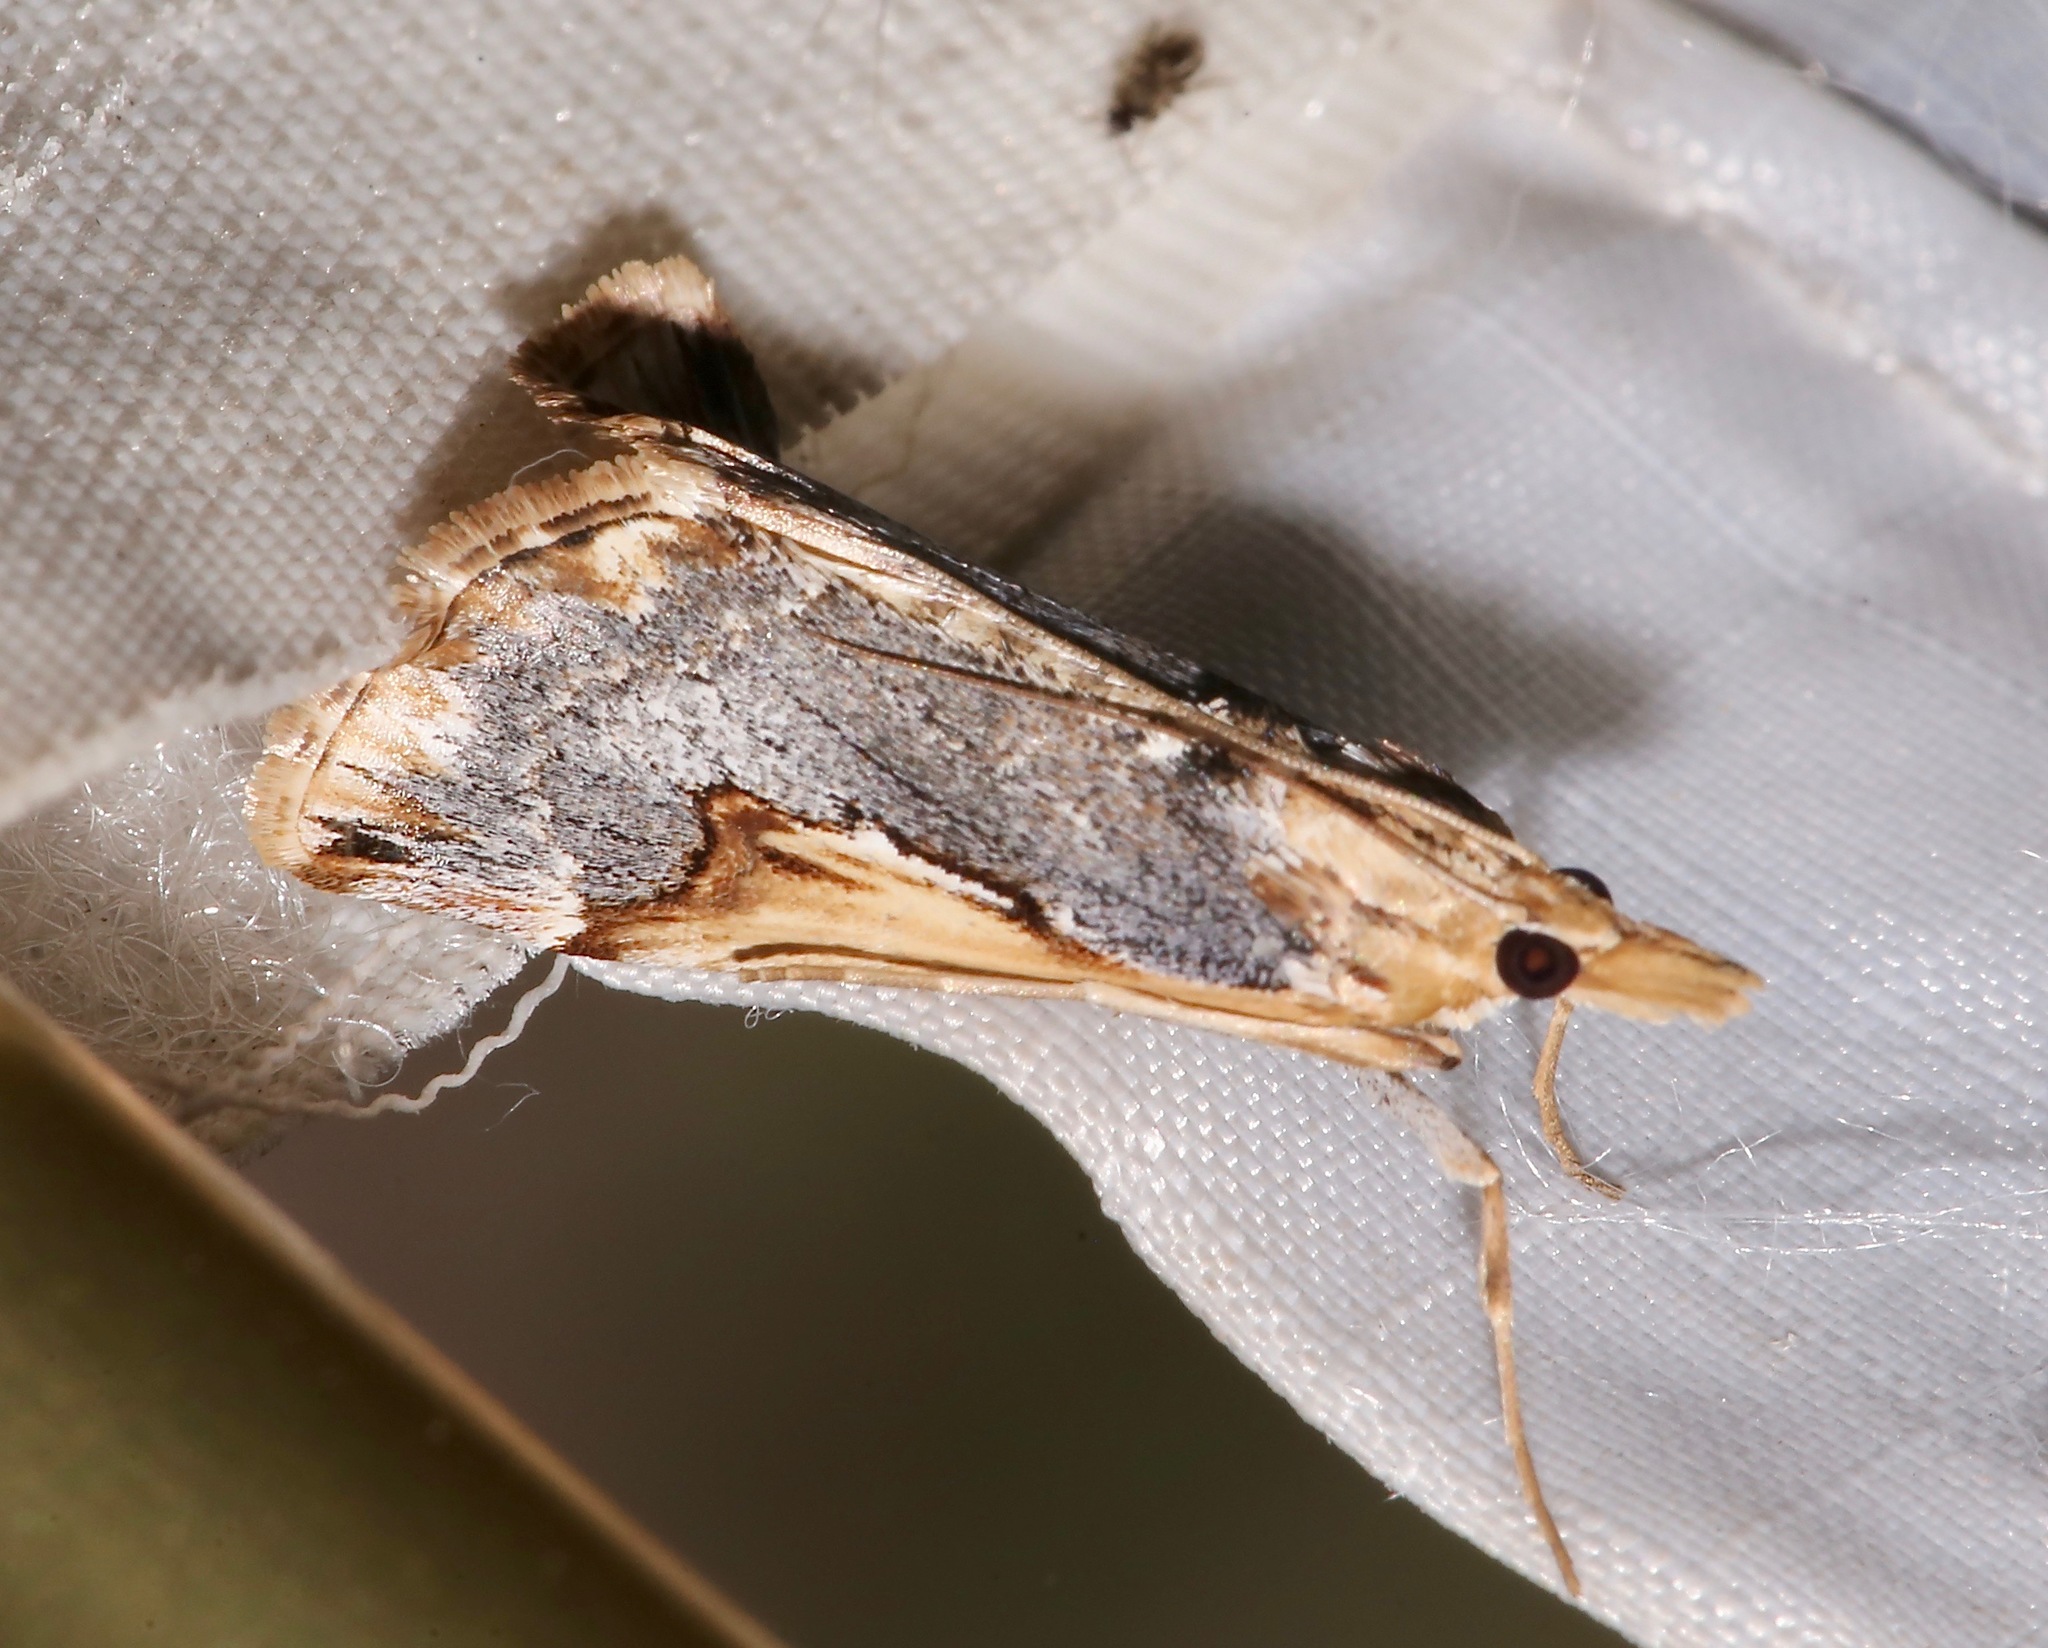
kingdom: Animalia
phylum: Arthropoda
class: Insecta
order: Lepidoptera
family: Crambidae
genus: Loxostege
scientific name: Loxostege albiceralis
